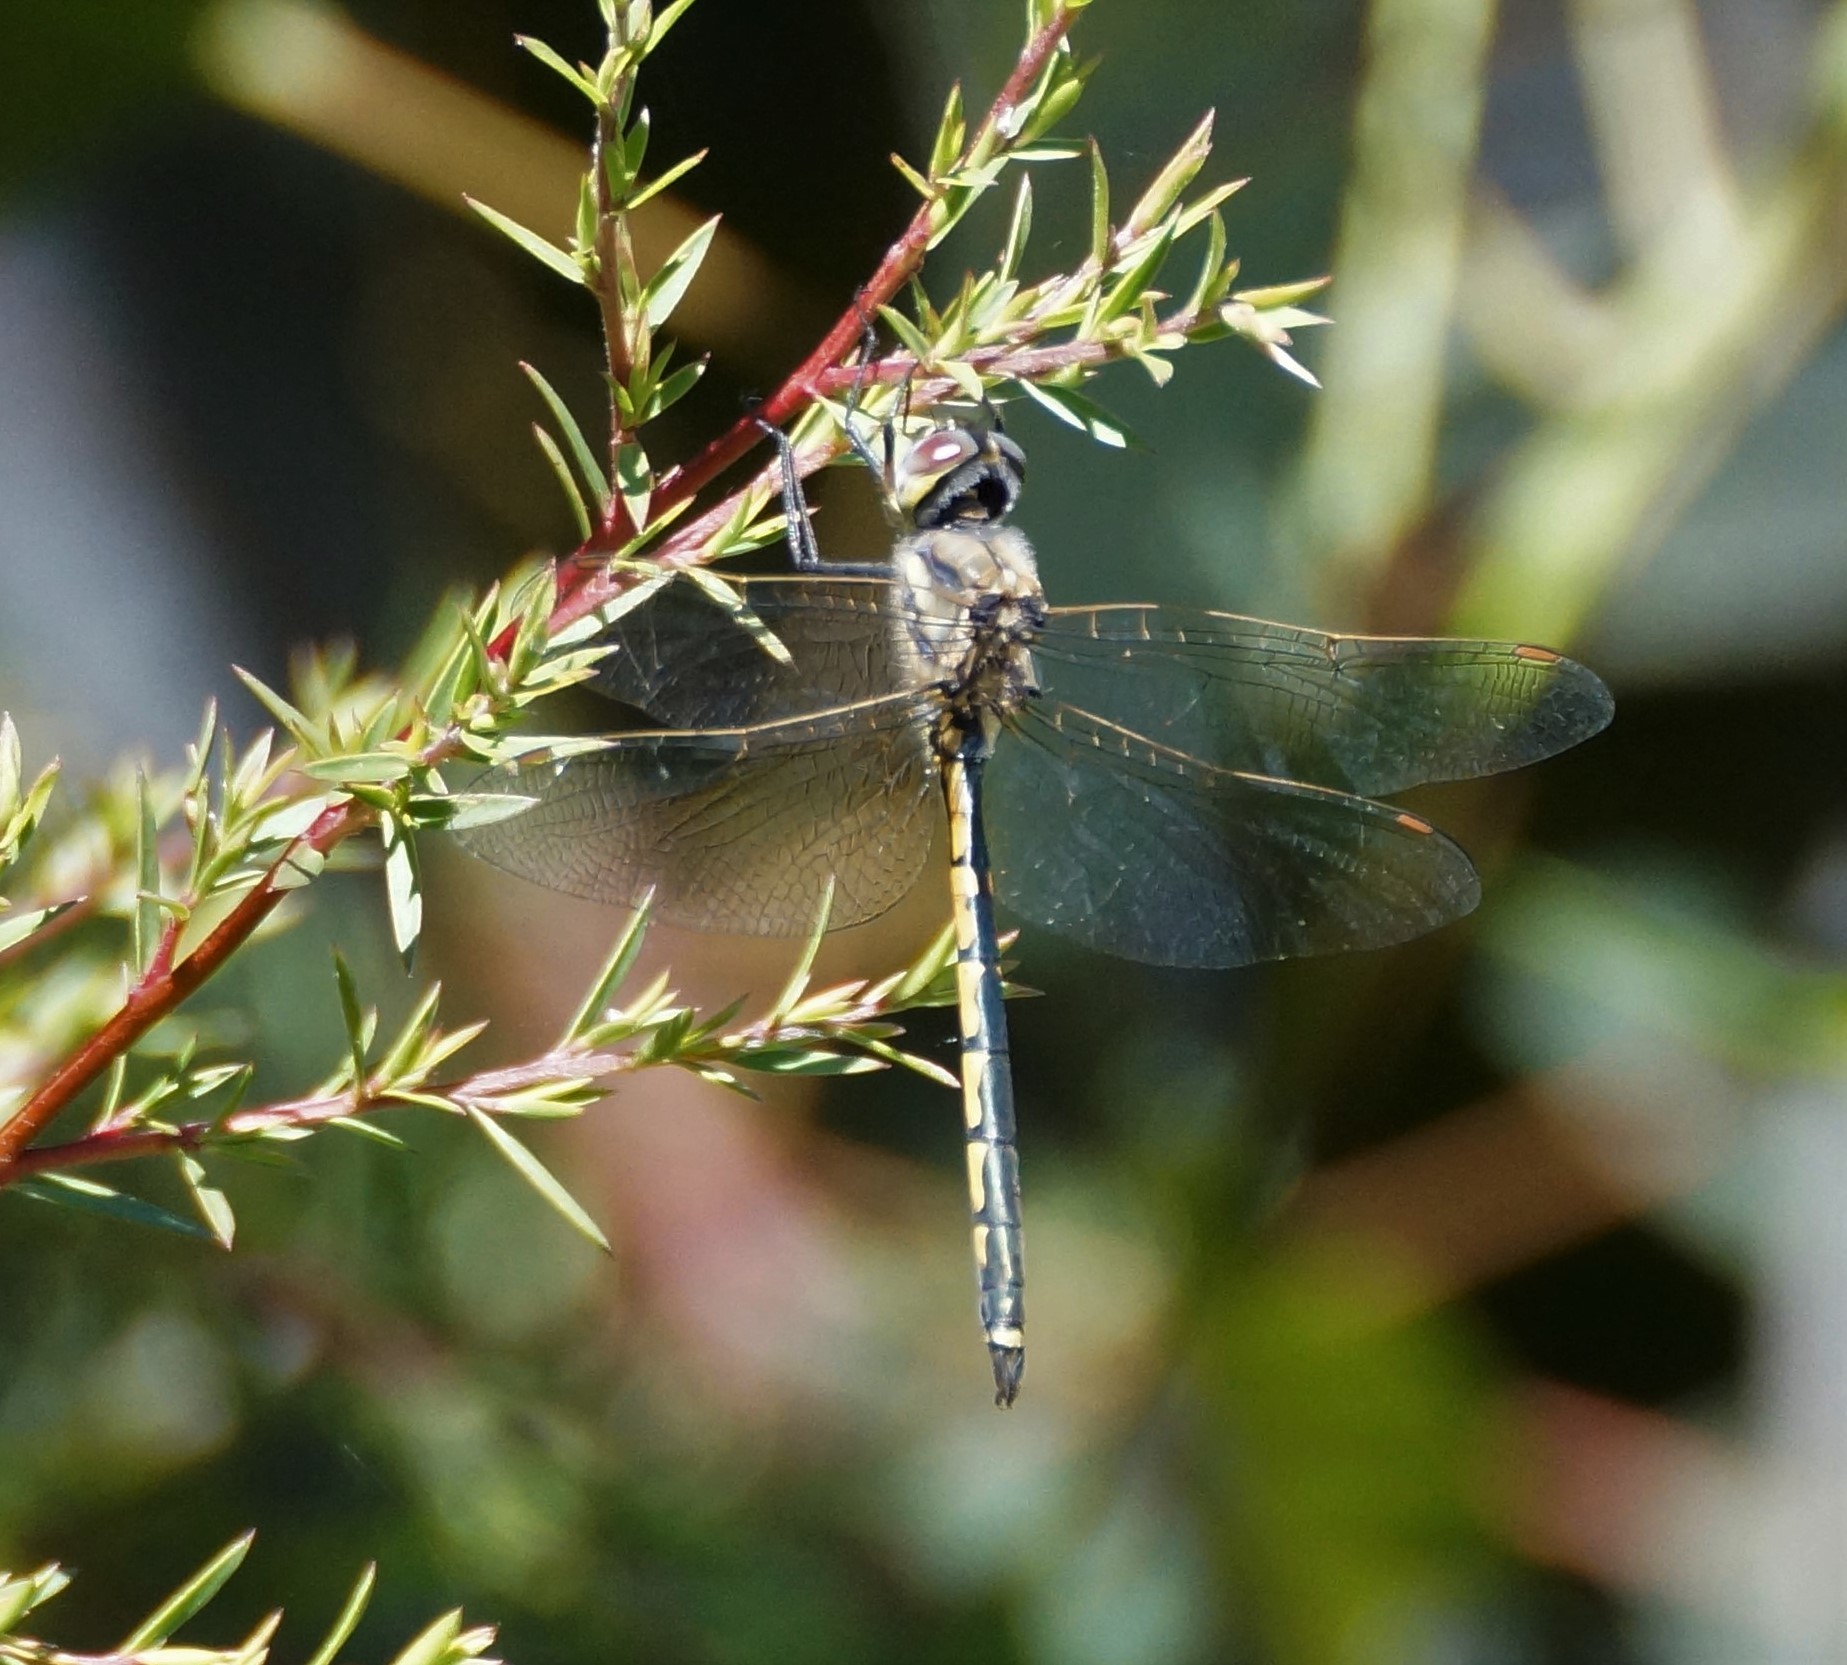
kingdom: Animalia
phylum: Arthropoda
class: Insecta
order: Odonata
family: Corduliidae
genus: Hemicordulia
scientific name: Hemicordulia tau
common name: Tau emerald
